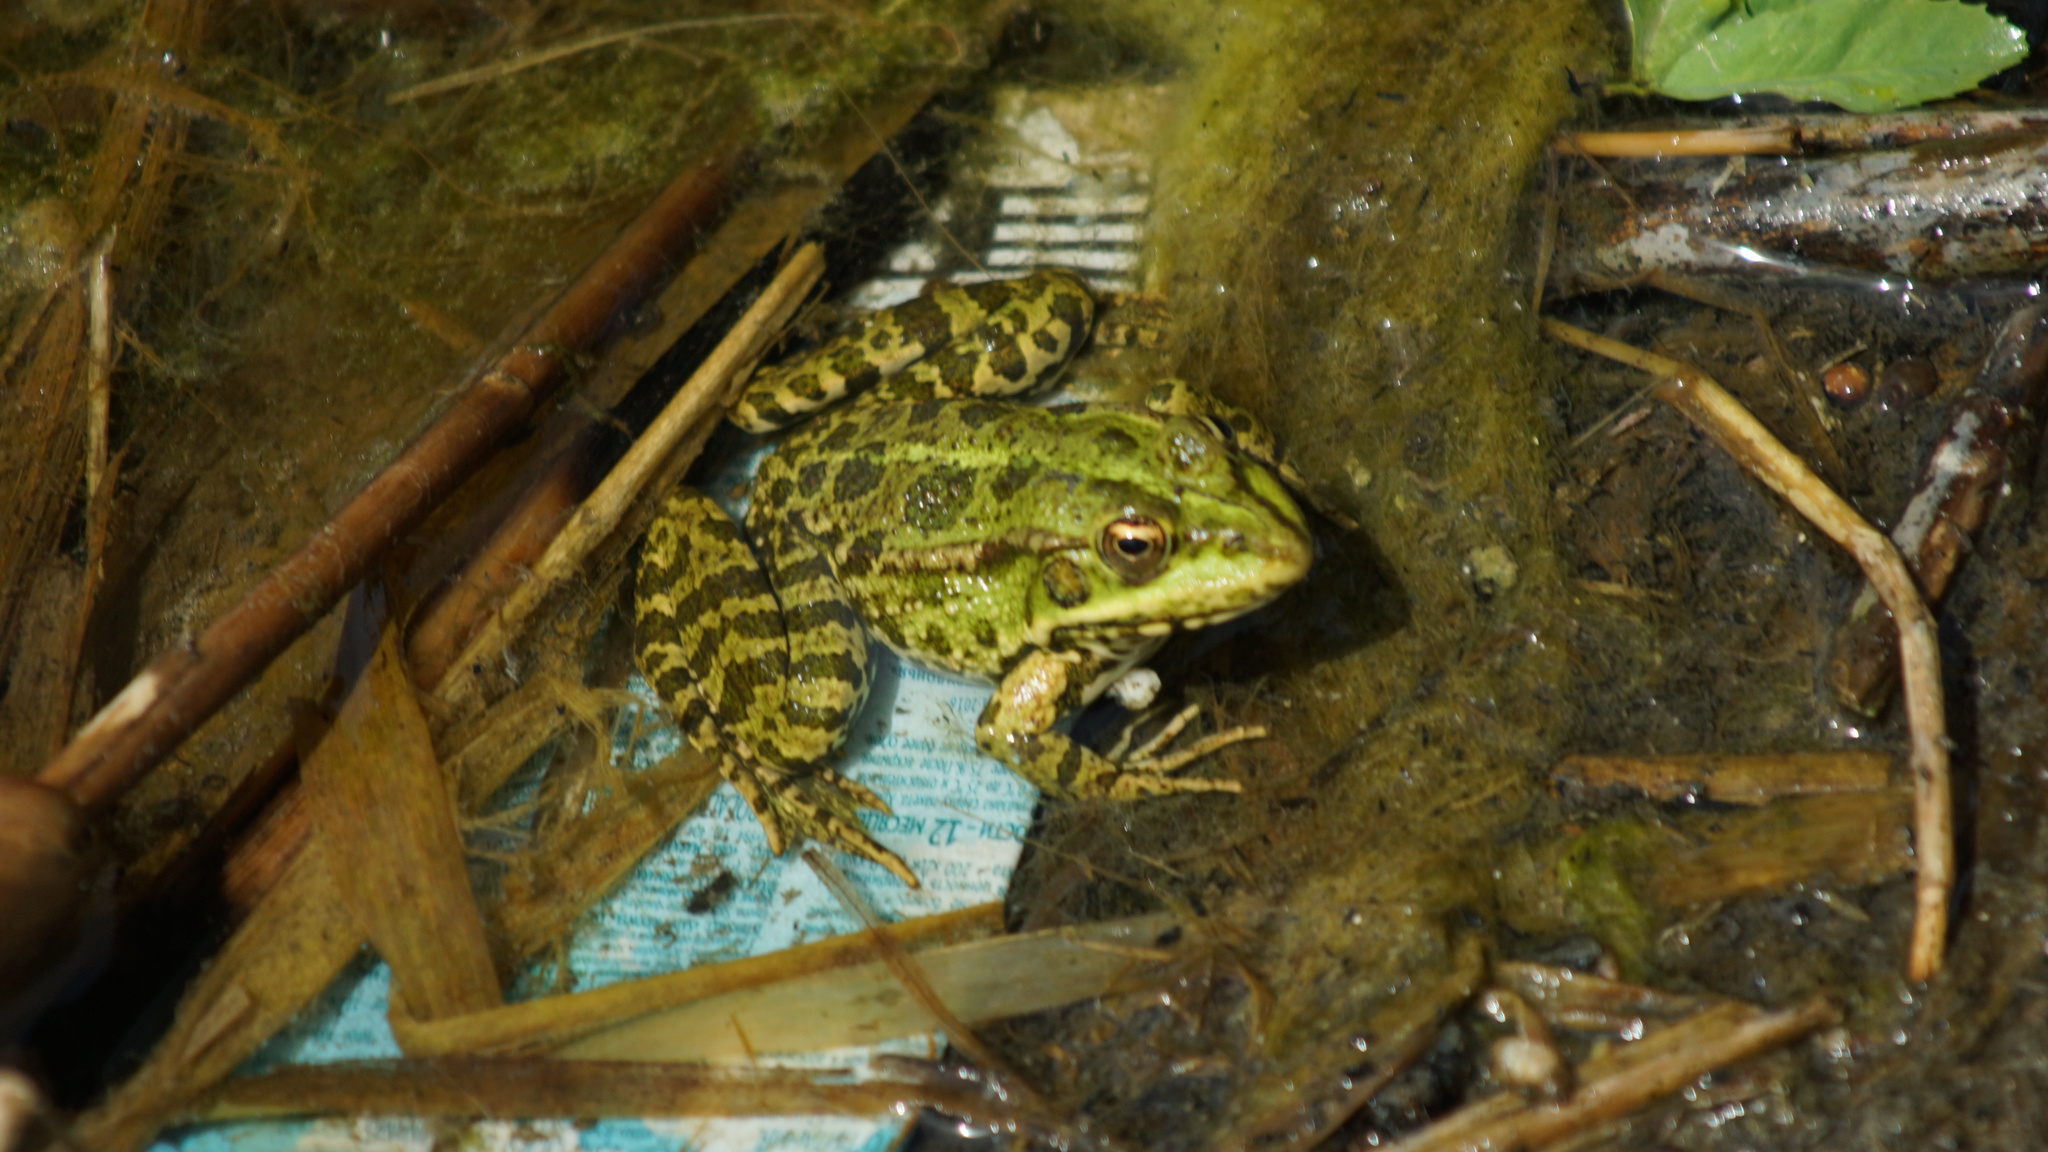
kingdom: Animalia
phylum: Chordata
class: Amphibia
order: Anura
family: Ranidae
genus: Pelophylax
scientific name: Pelophylax ridibundus
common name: Marsh frog
